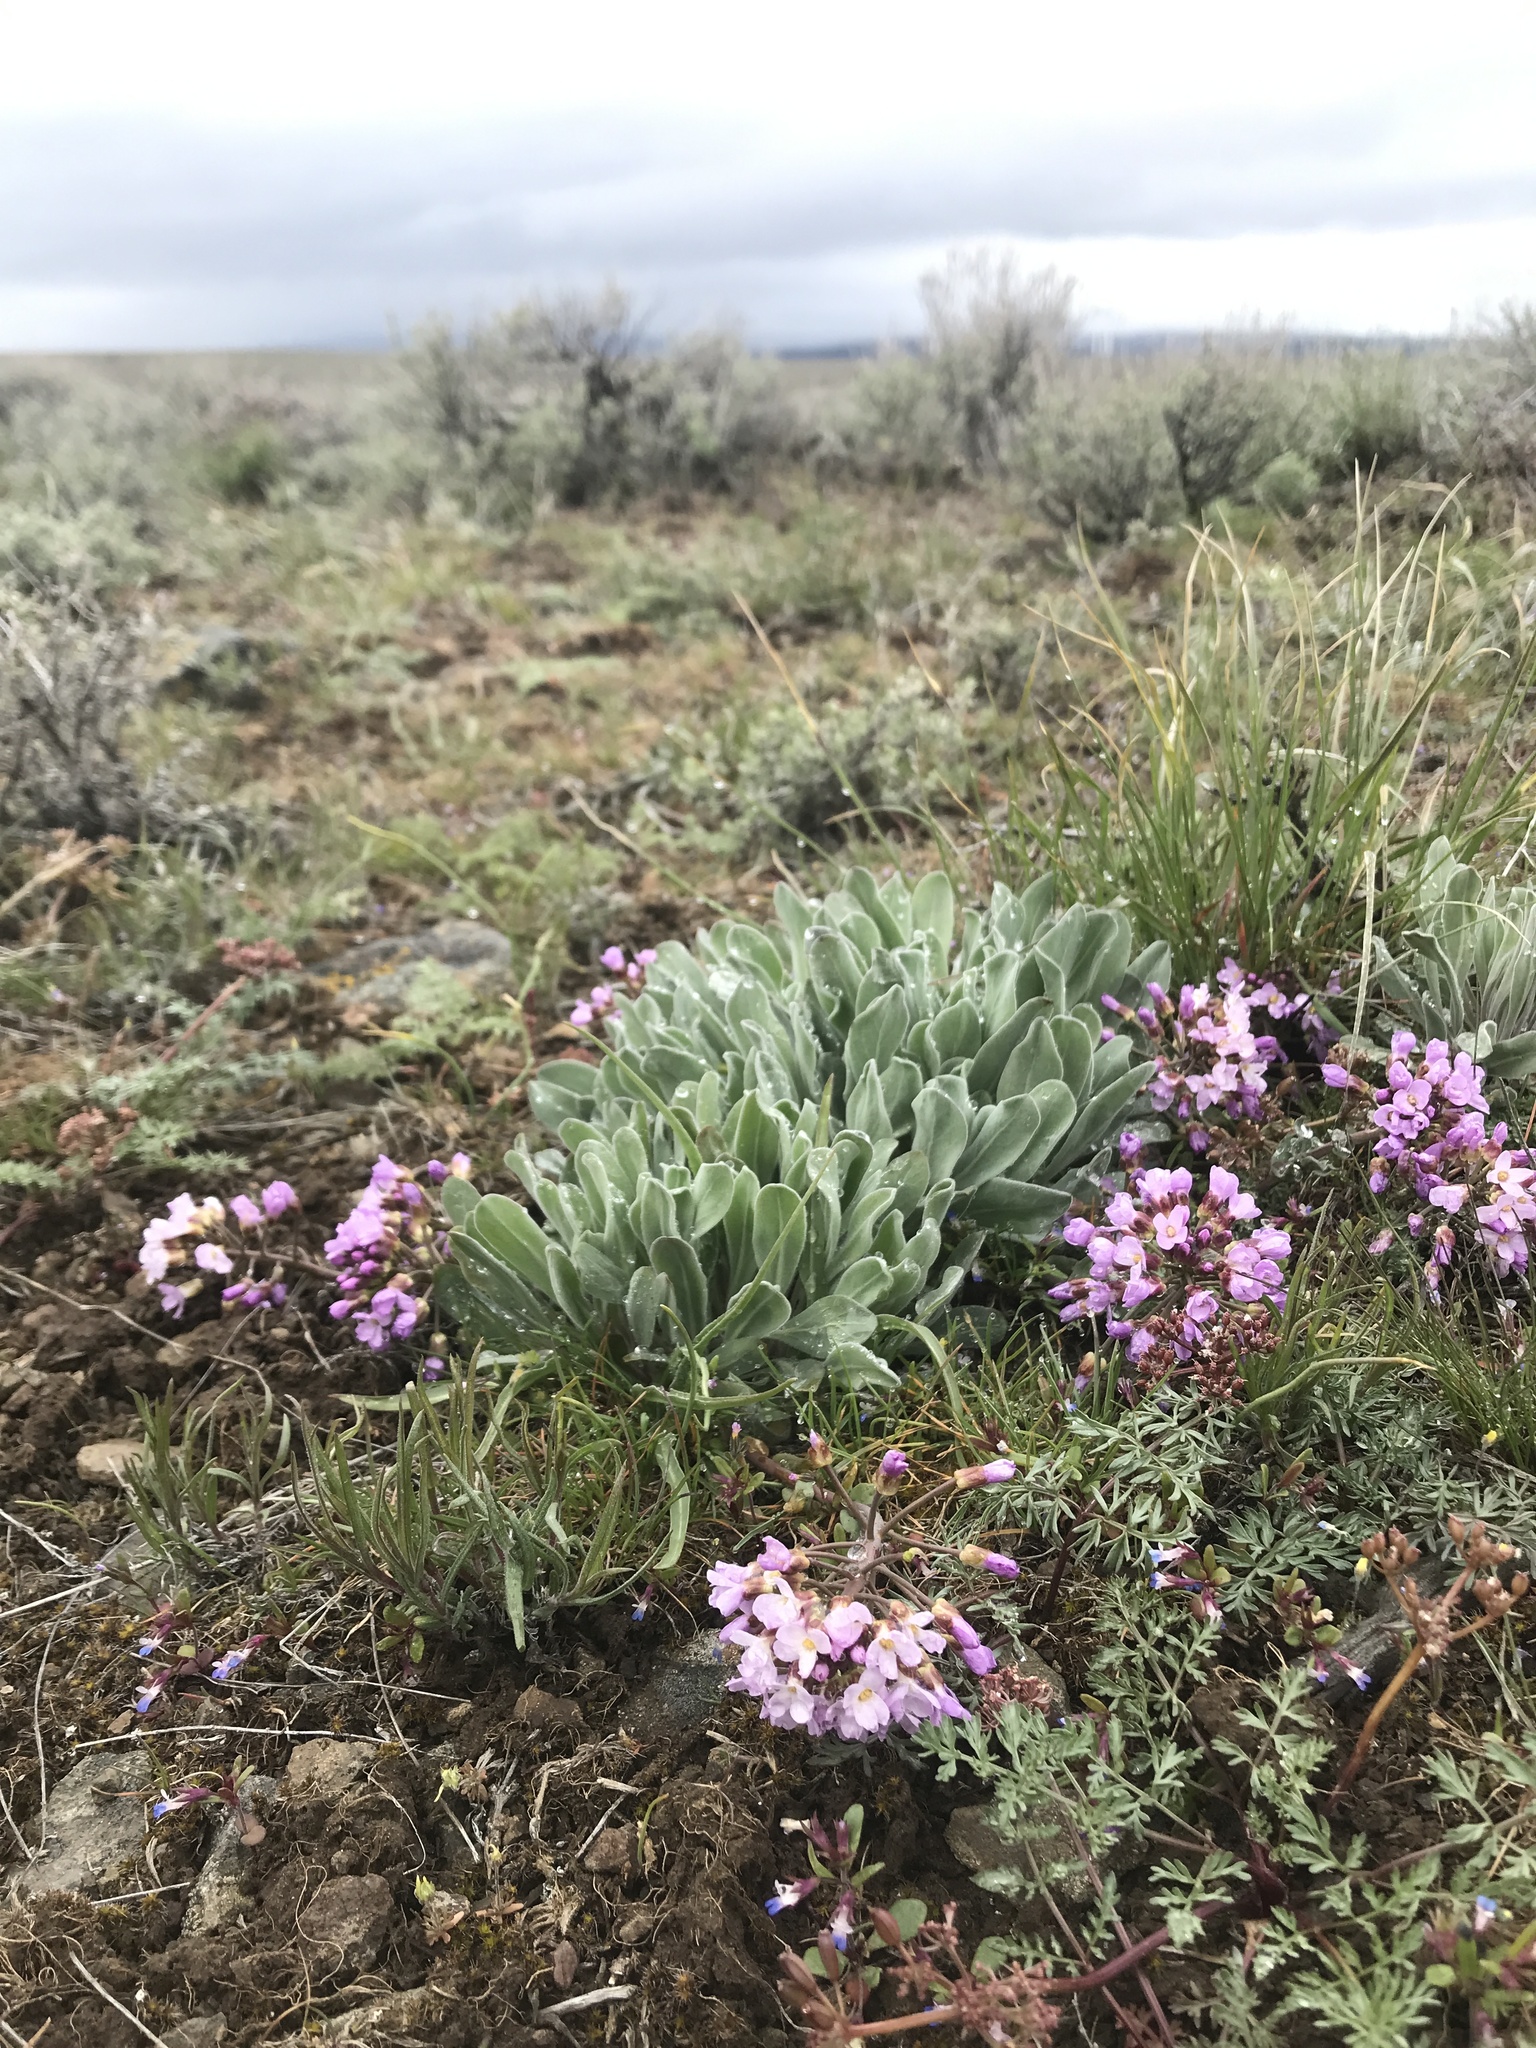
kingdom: Plantae
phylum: Tracheophyta
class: Magnoliopsida
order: Brassicales
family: Brassicaceae
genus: Phoenicaulis
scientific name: Phoenicaulis cheiranthoides
